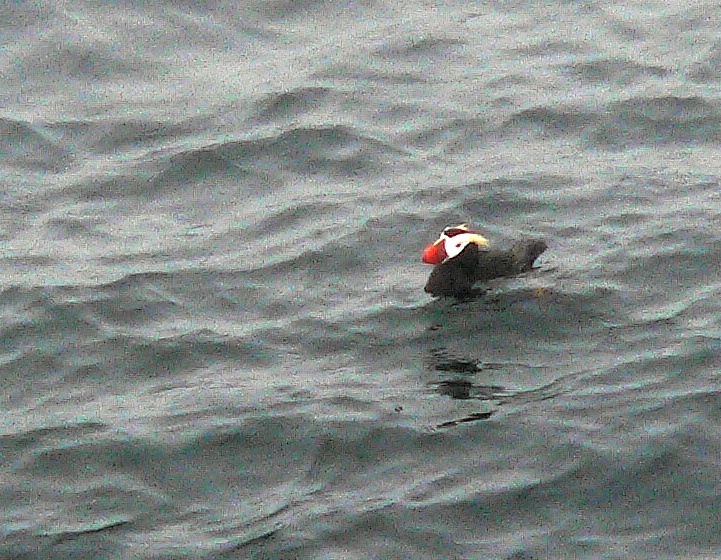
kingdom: Animalia
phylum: Chordata
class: Aves
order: Charadriiformes
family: Alcidae
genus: Fratercula
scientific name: Fratercula cirrhata
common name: Tufted puffin
